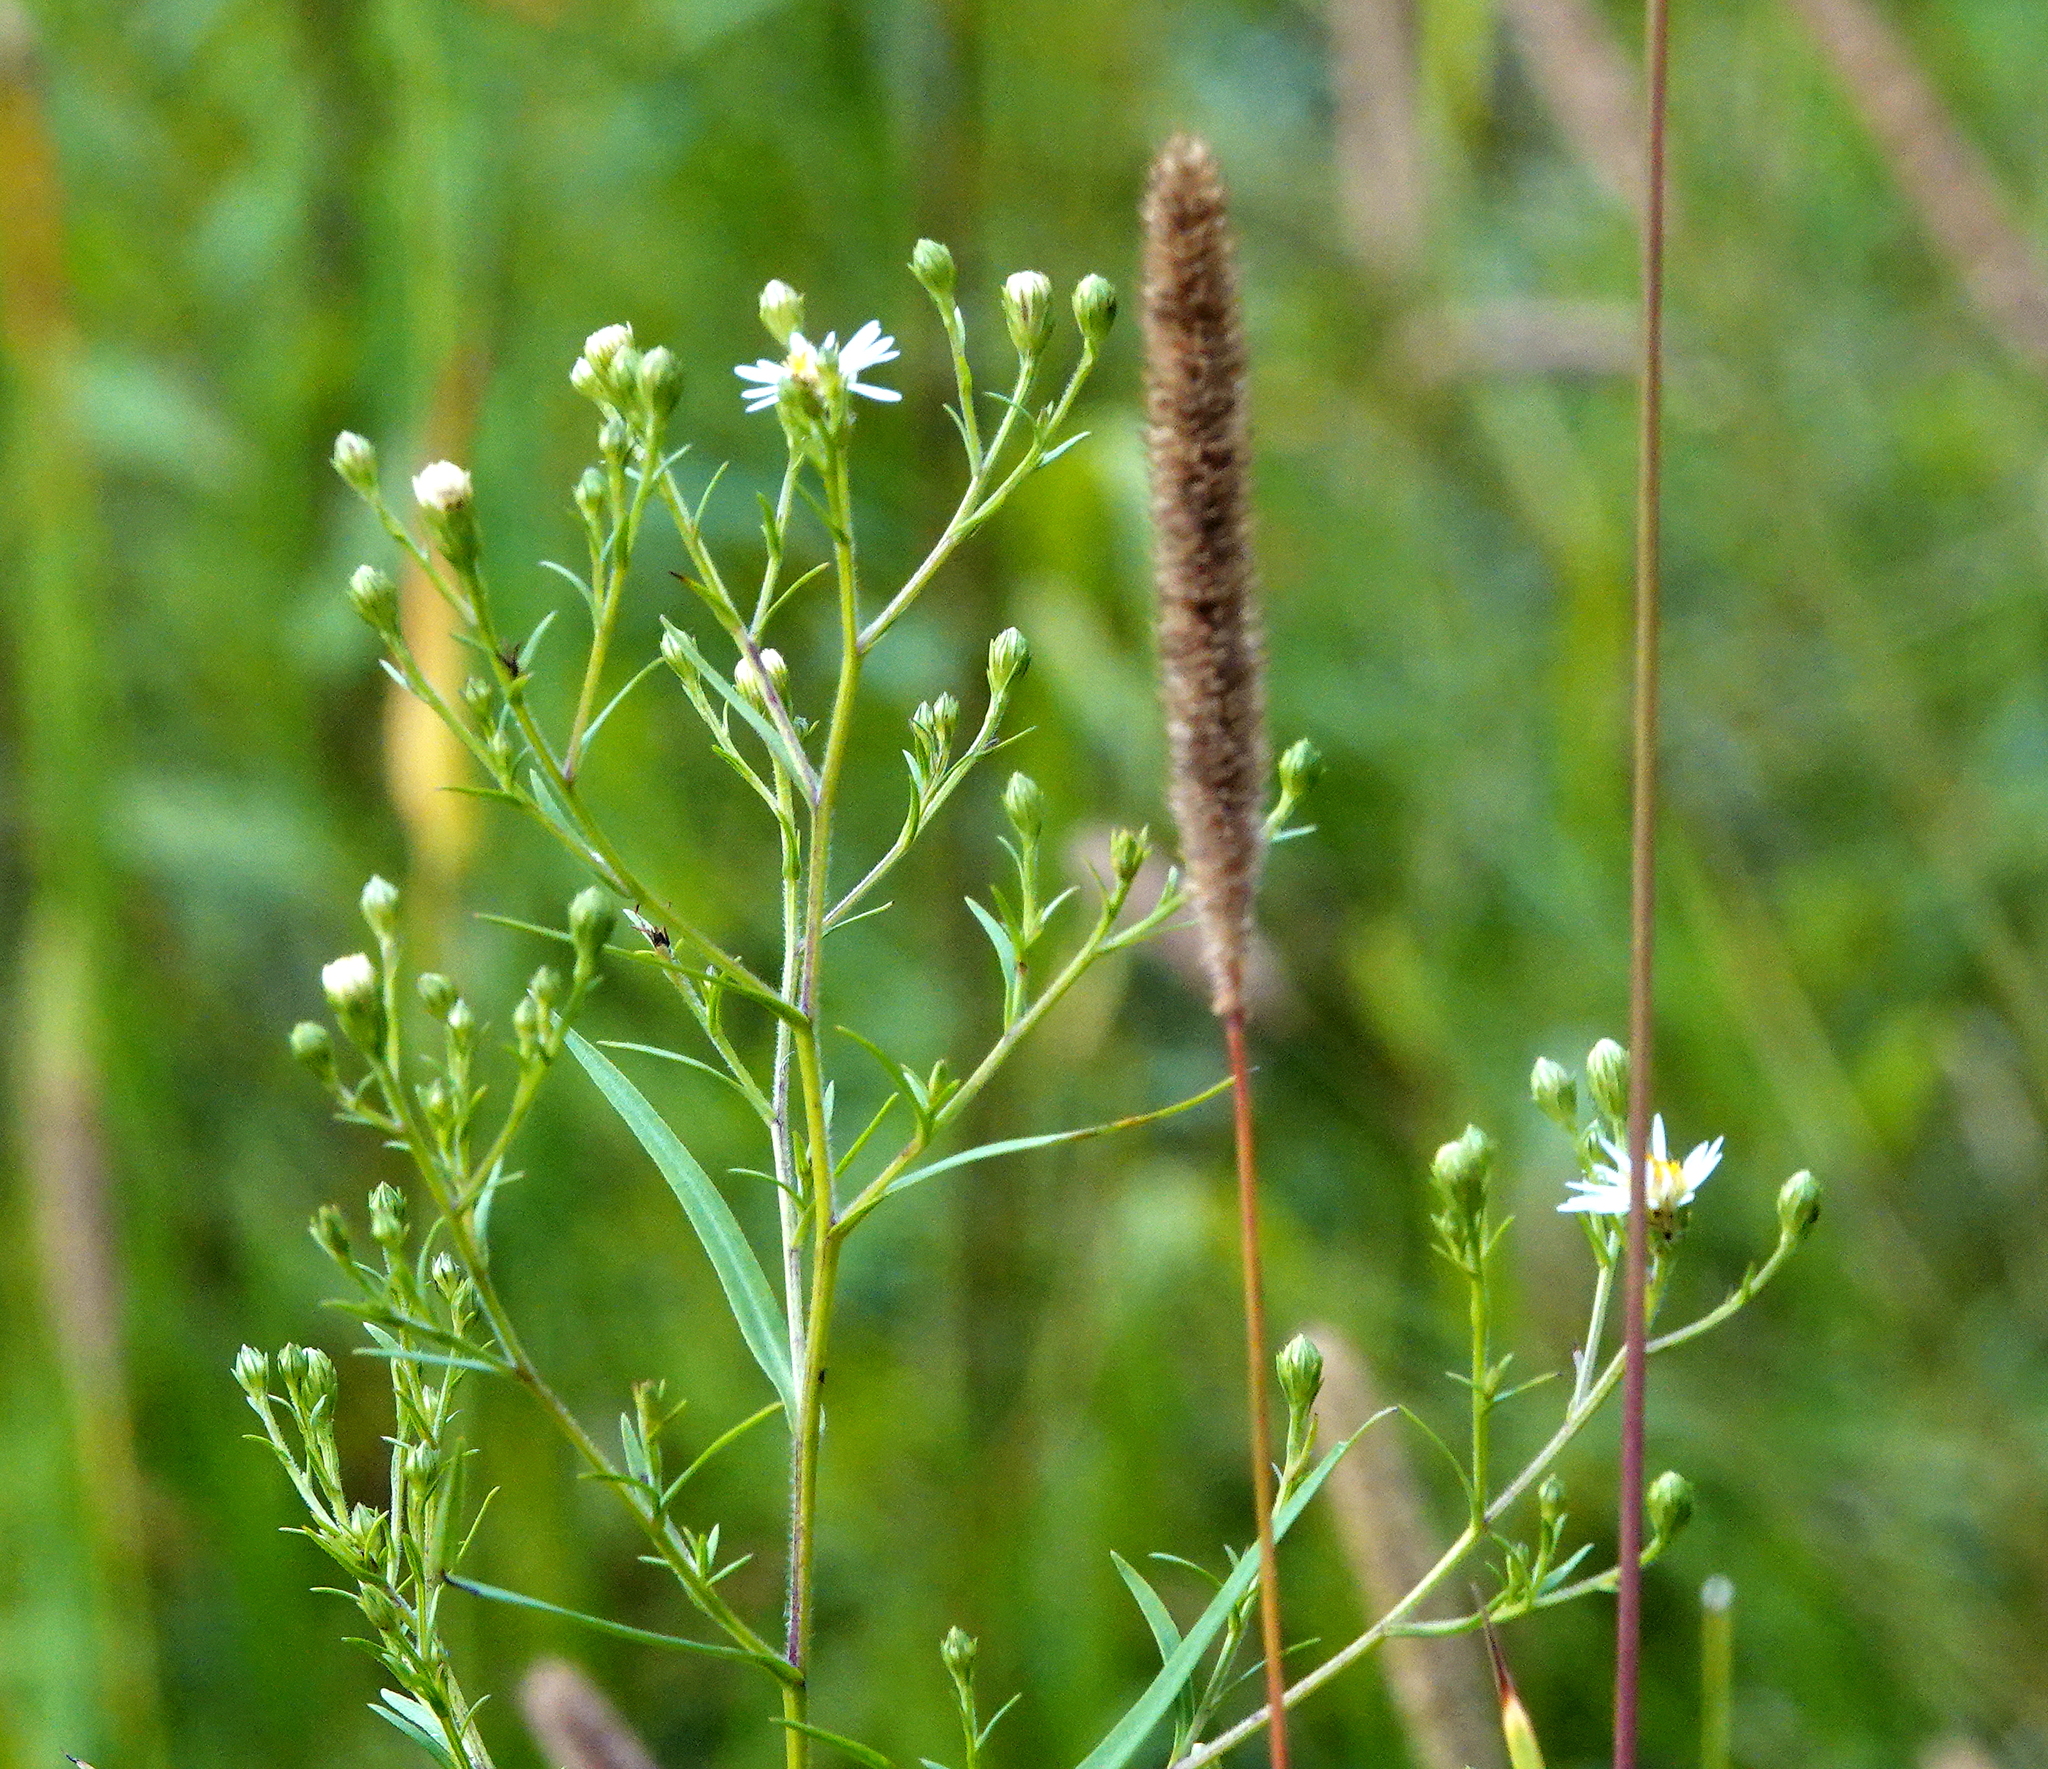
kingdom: Plantae
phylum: Tracheophyta
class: Magnoliopsida
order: Asterales
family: Asteraceae
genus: Symphyotrichum
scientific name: Symphyotrichum lanceolatum
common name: Panicled aster
